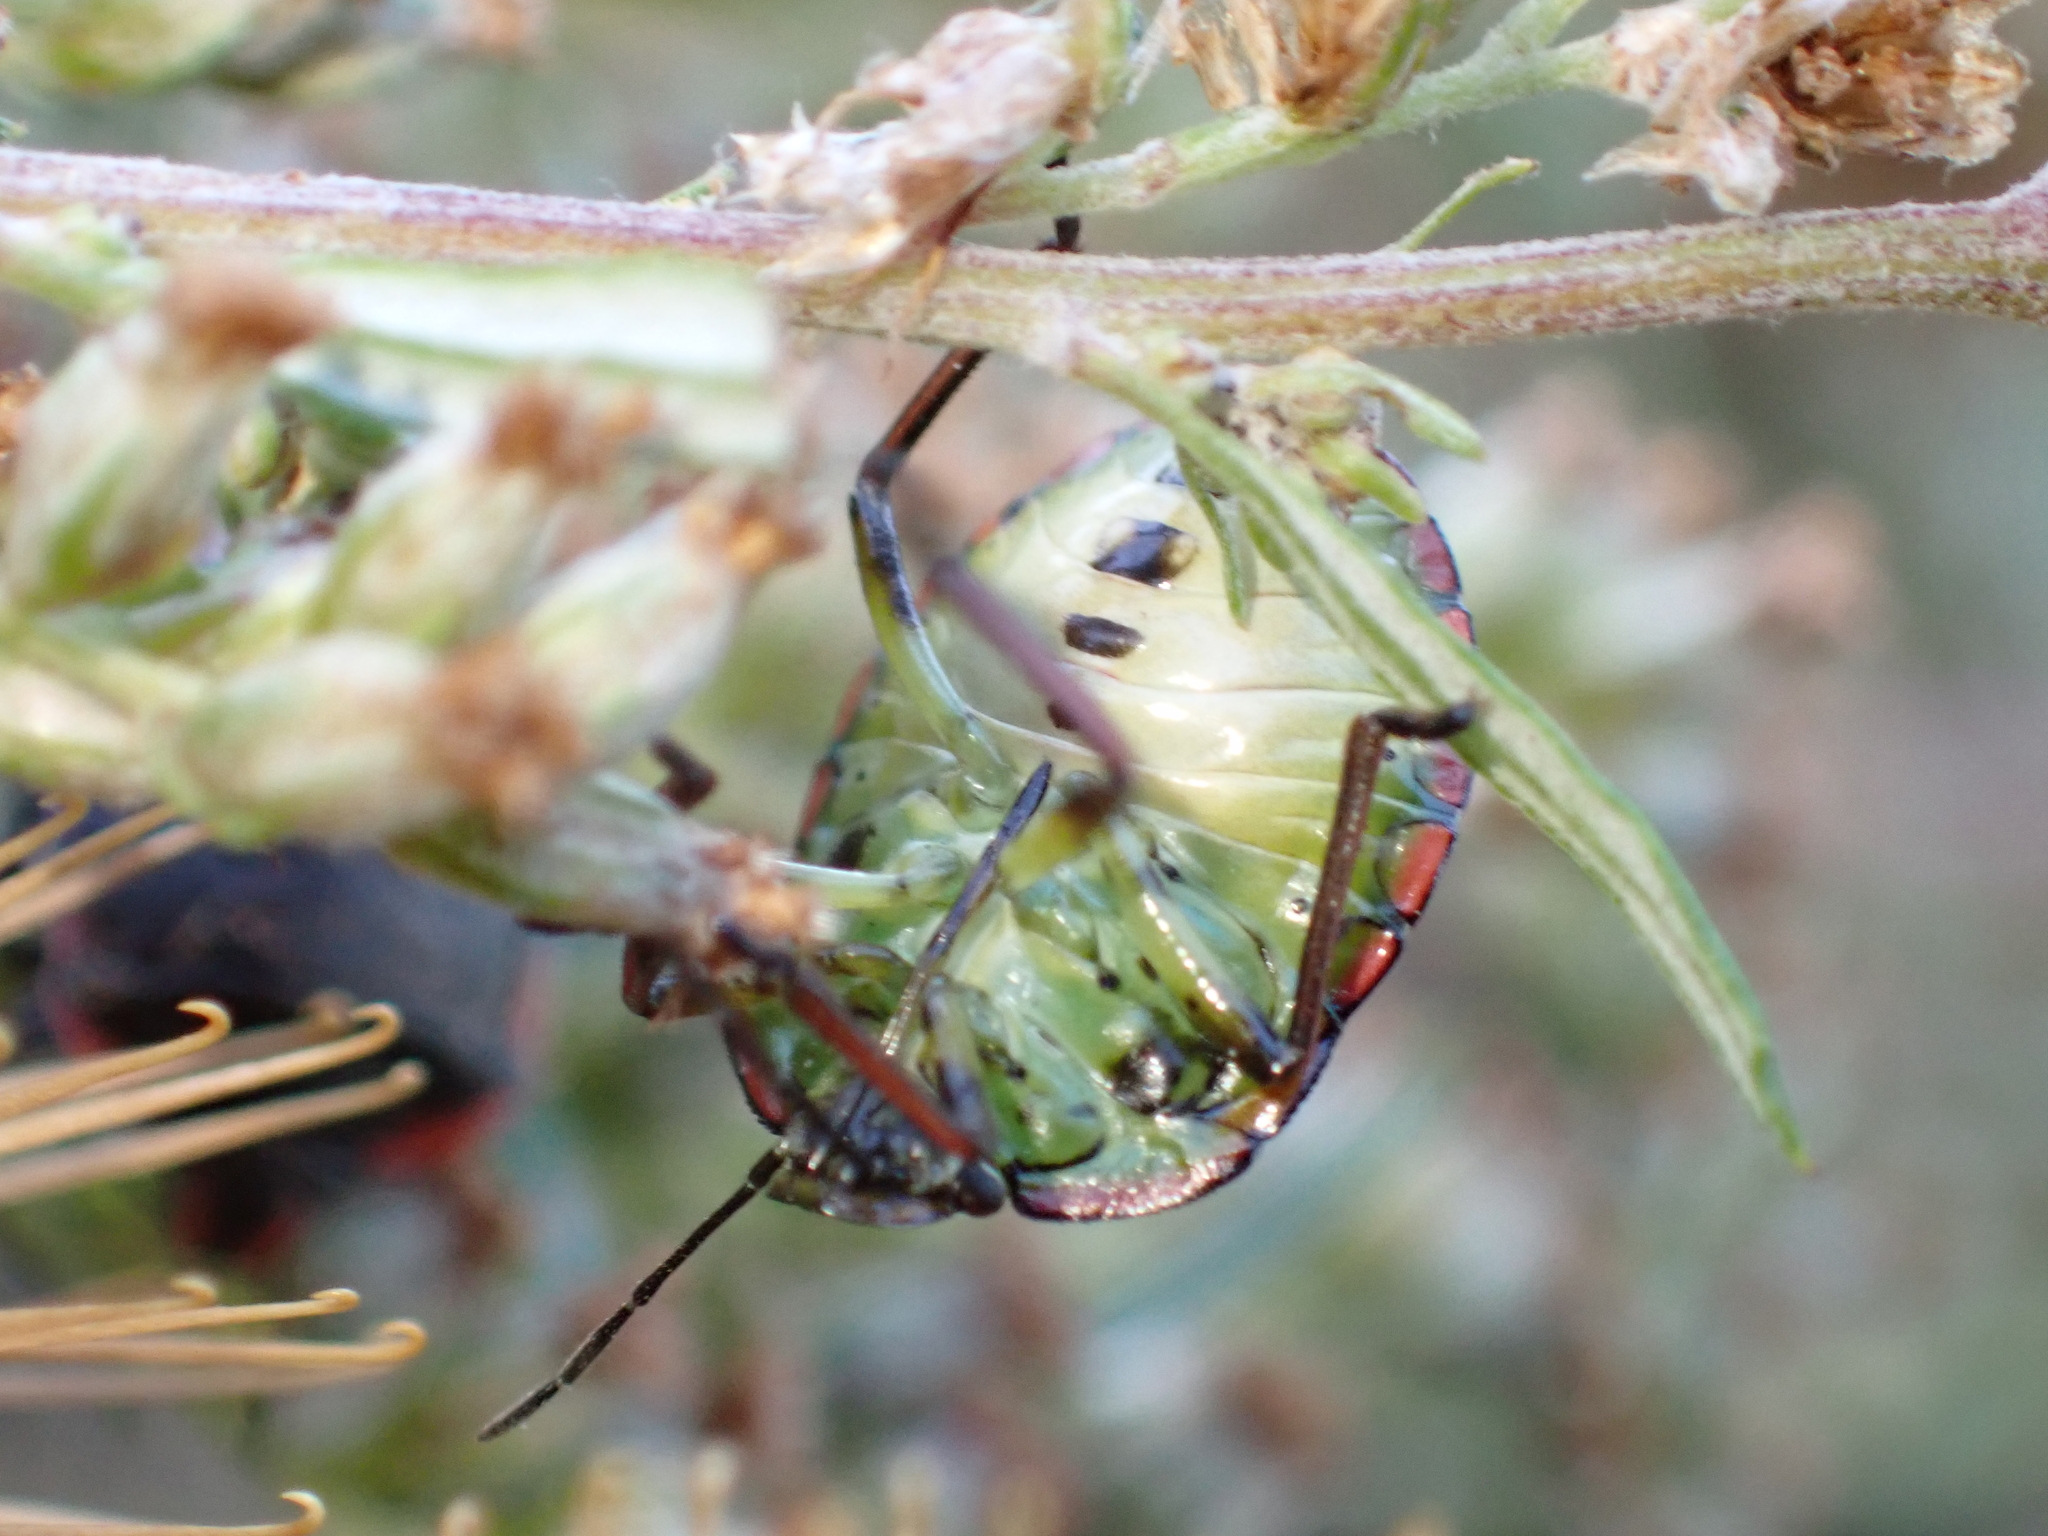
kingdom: Animalia
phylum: Arthropoda
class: Insecta
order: Hemiptera
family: Pentatomidae
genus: Nezara
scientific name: Nezara viridula
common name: Southern green stink bug
